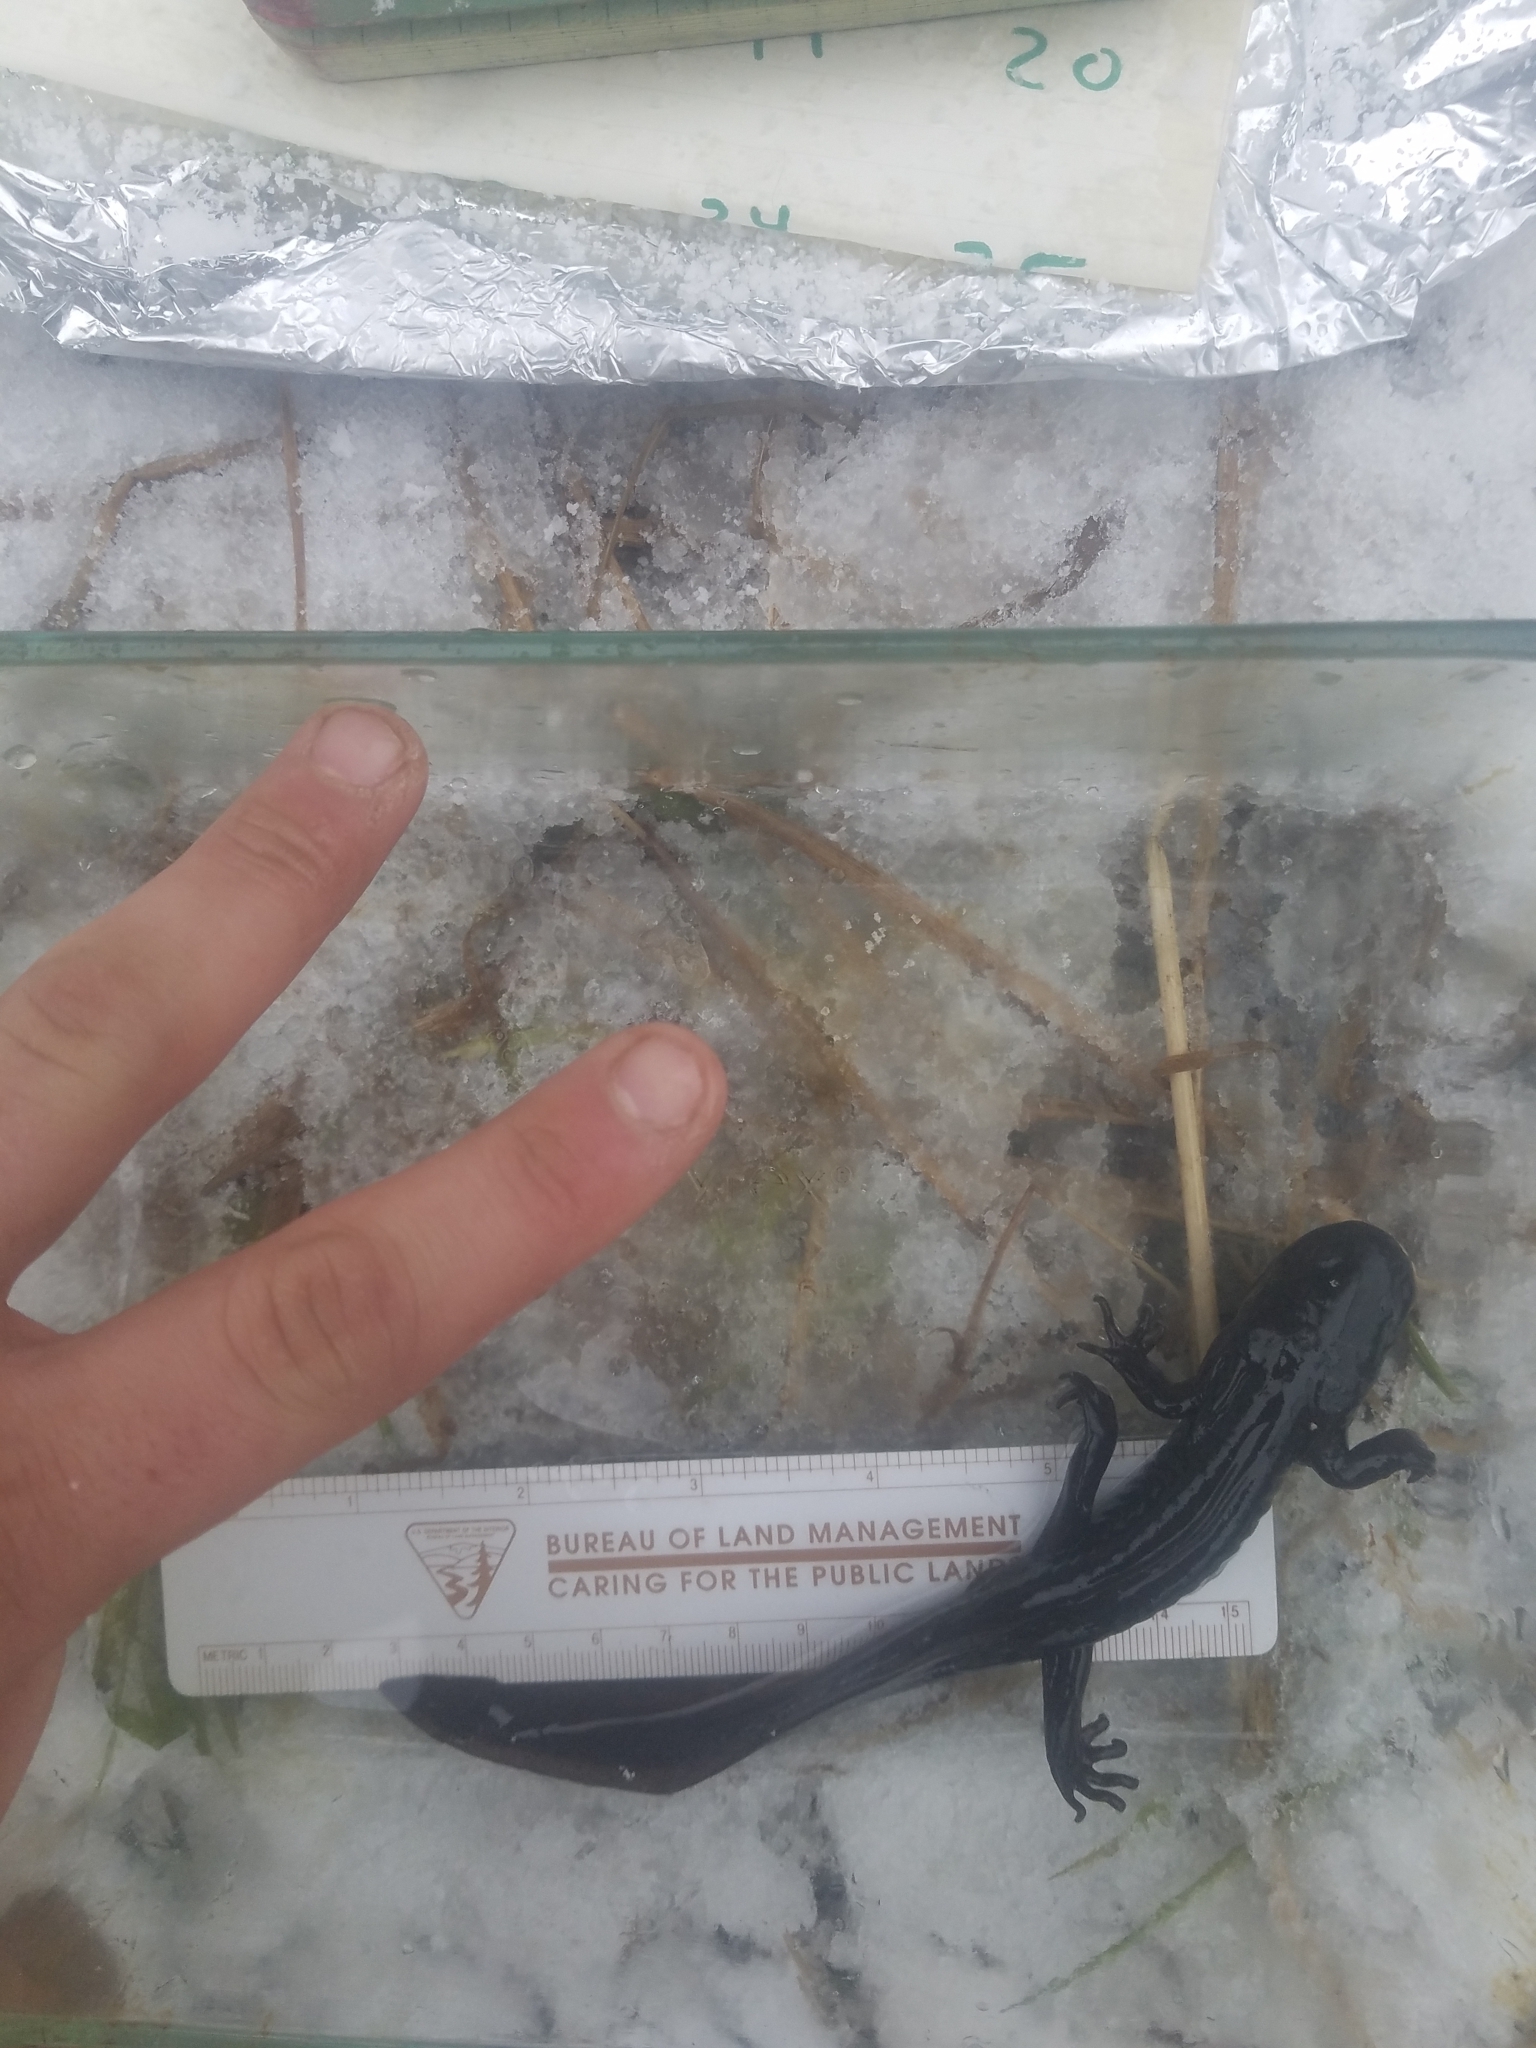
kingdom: Animalia
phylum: Chordata
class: Amphibia
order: Caudata
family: Ambystomatidae
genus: Ambystoma
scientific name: Ambystoma gracile
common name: Northwestern salamander
